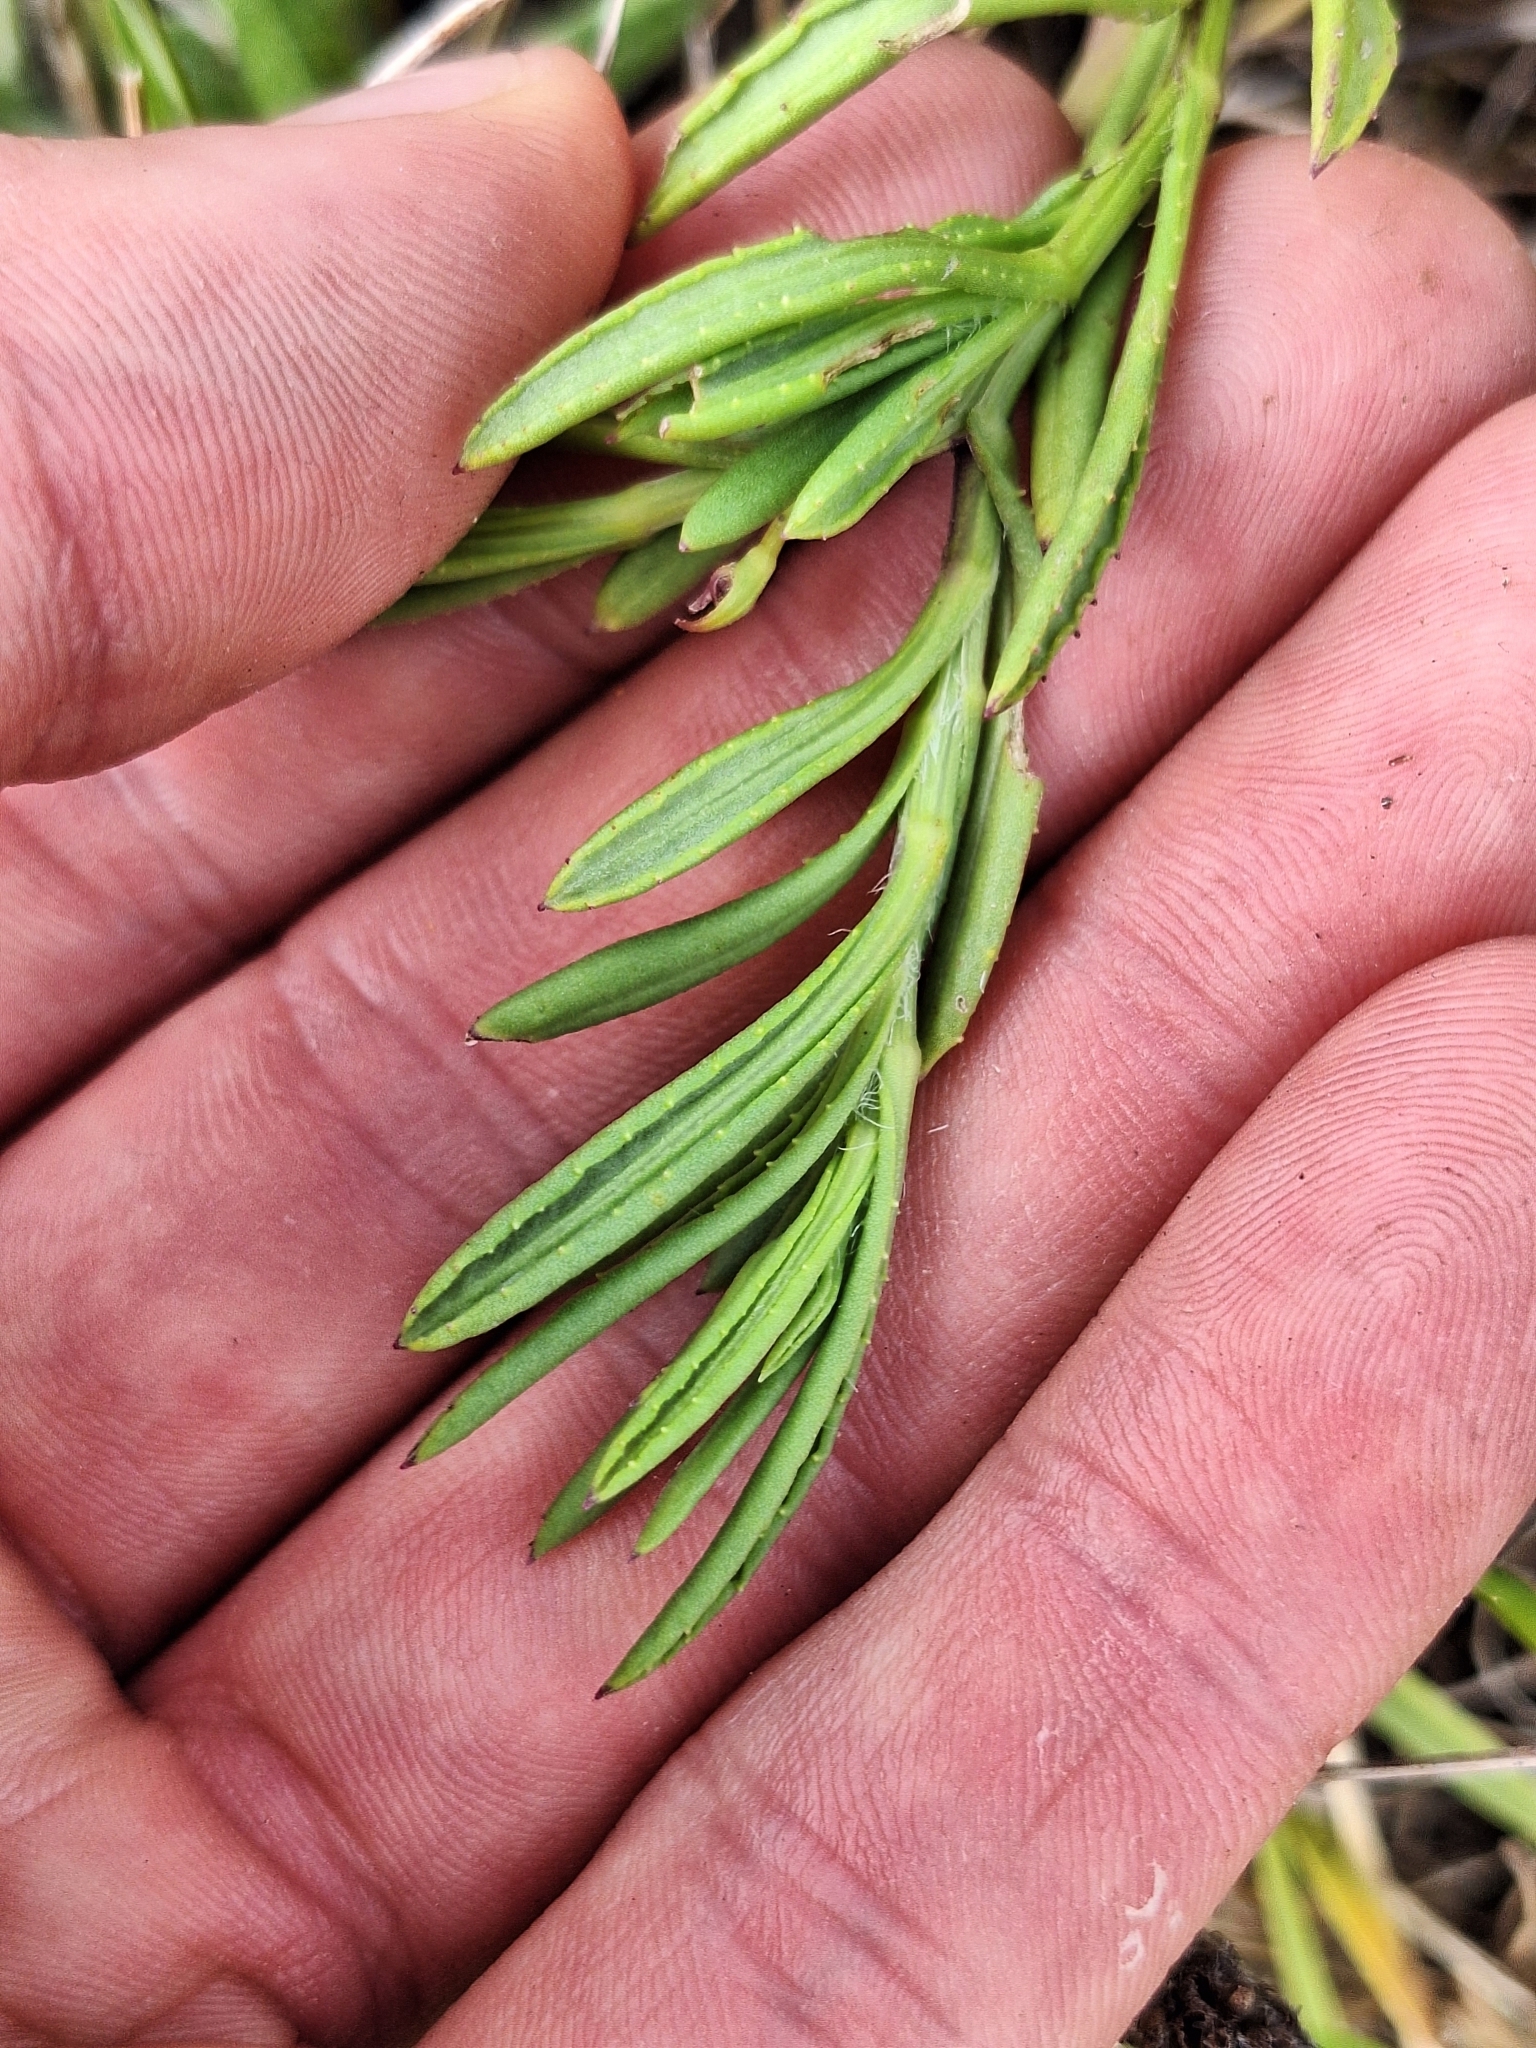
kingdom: Plantae
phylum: Tracheophyta
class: Magnoliopsida
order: Asterales
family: Asteraceae
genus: Senecio
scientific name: Senecio skirrhodon
